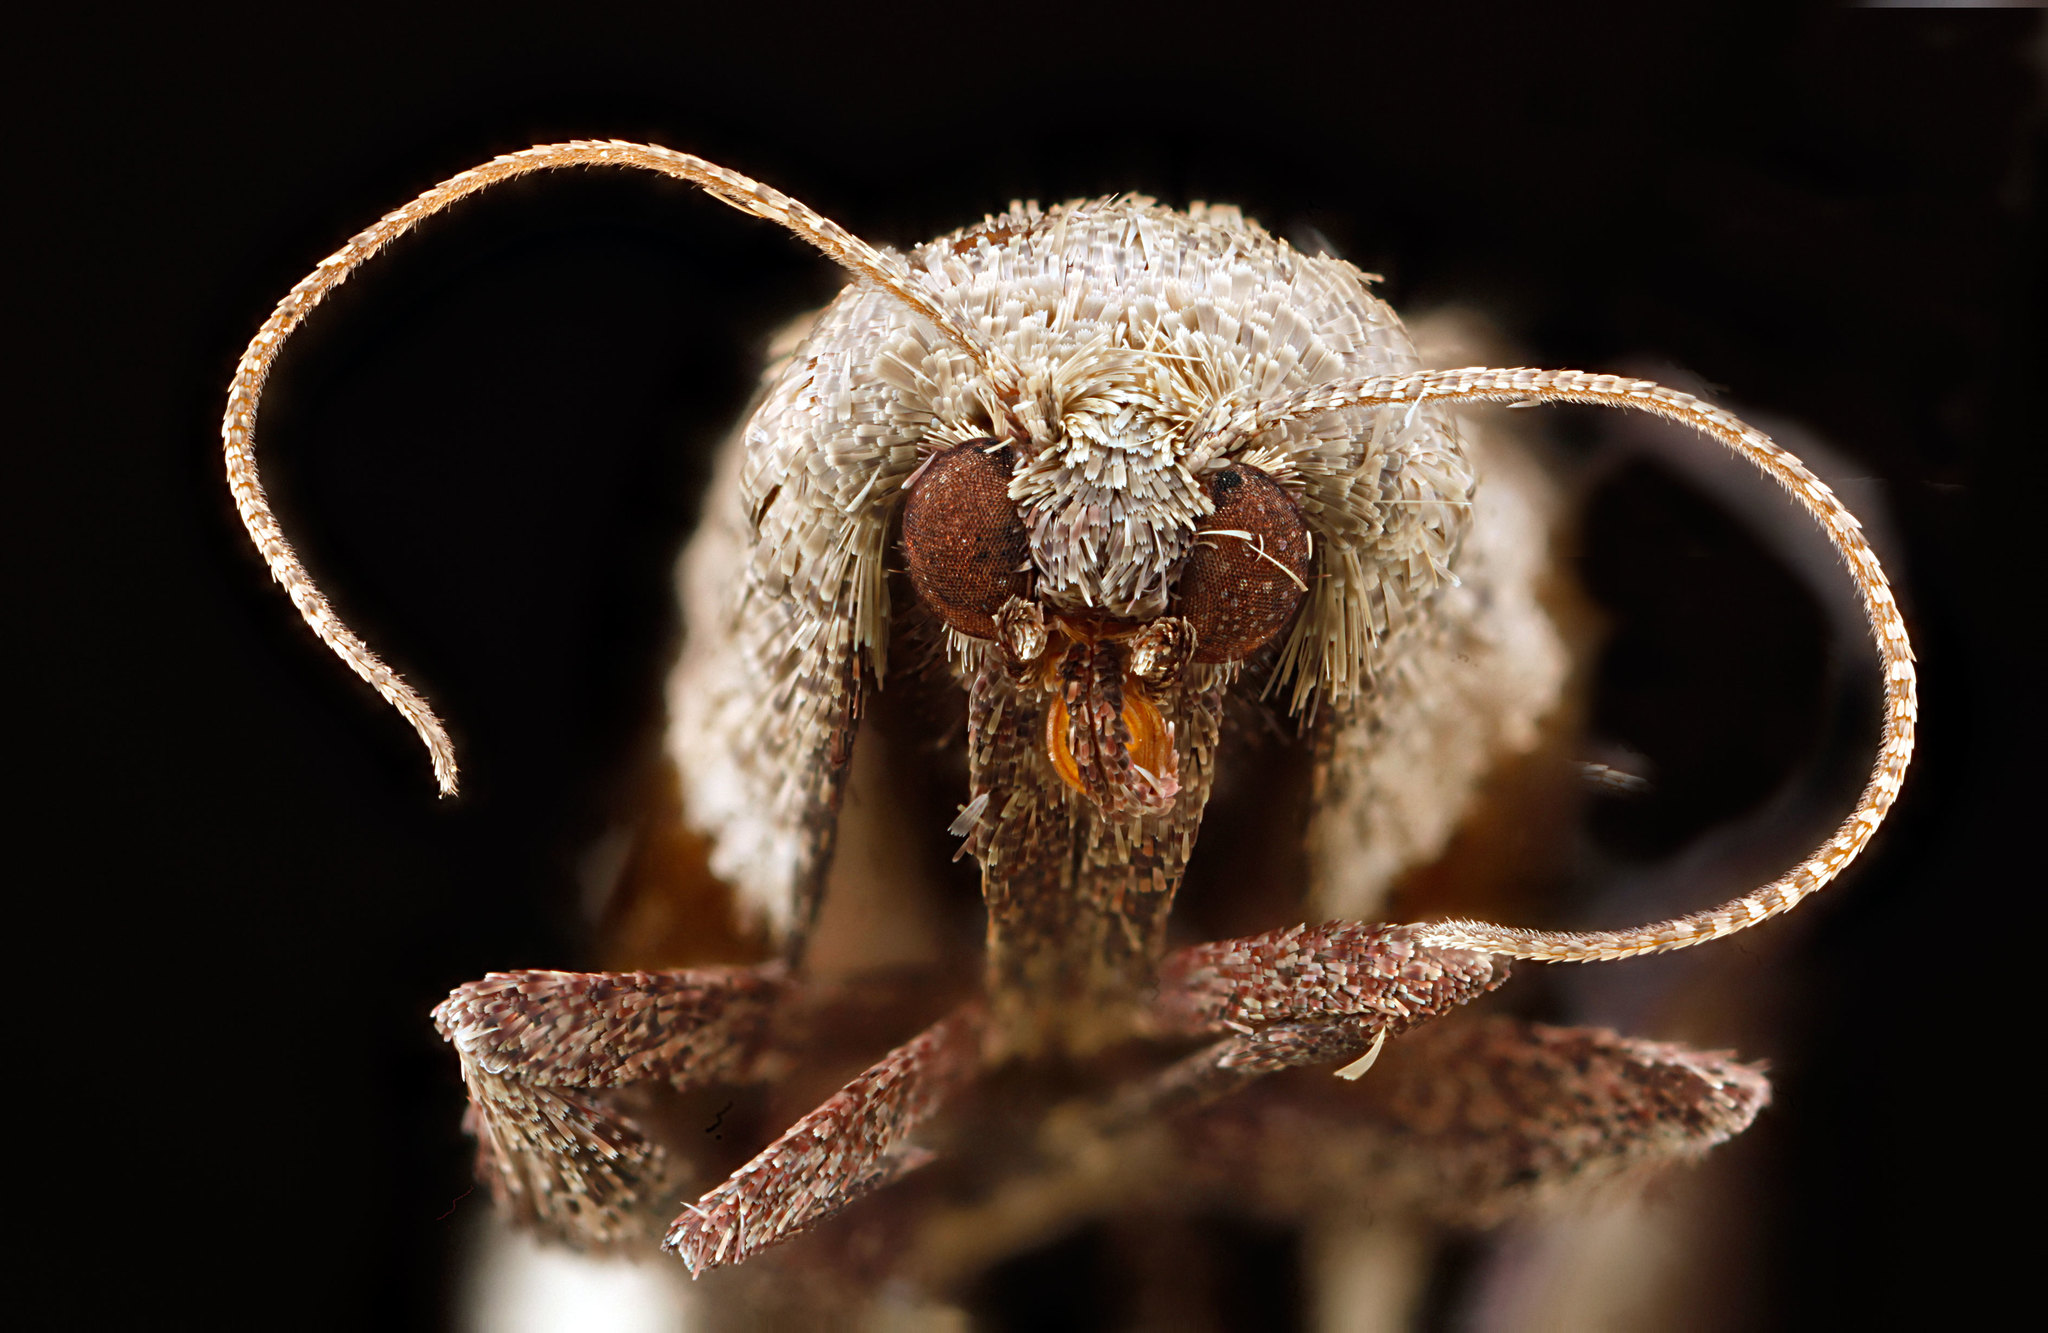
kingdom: Animalia
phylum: Arthropoda
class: Insecta
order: Lepidoptera
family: Pyralidae
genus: Tosale
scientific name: Tosale oviplagalis
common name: Dimorphic tosale moth
